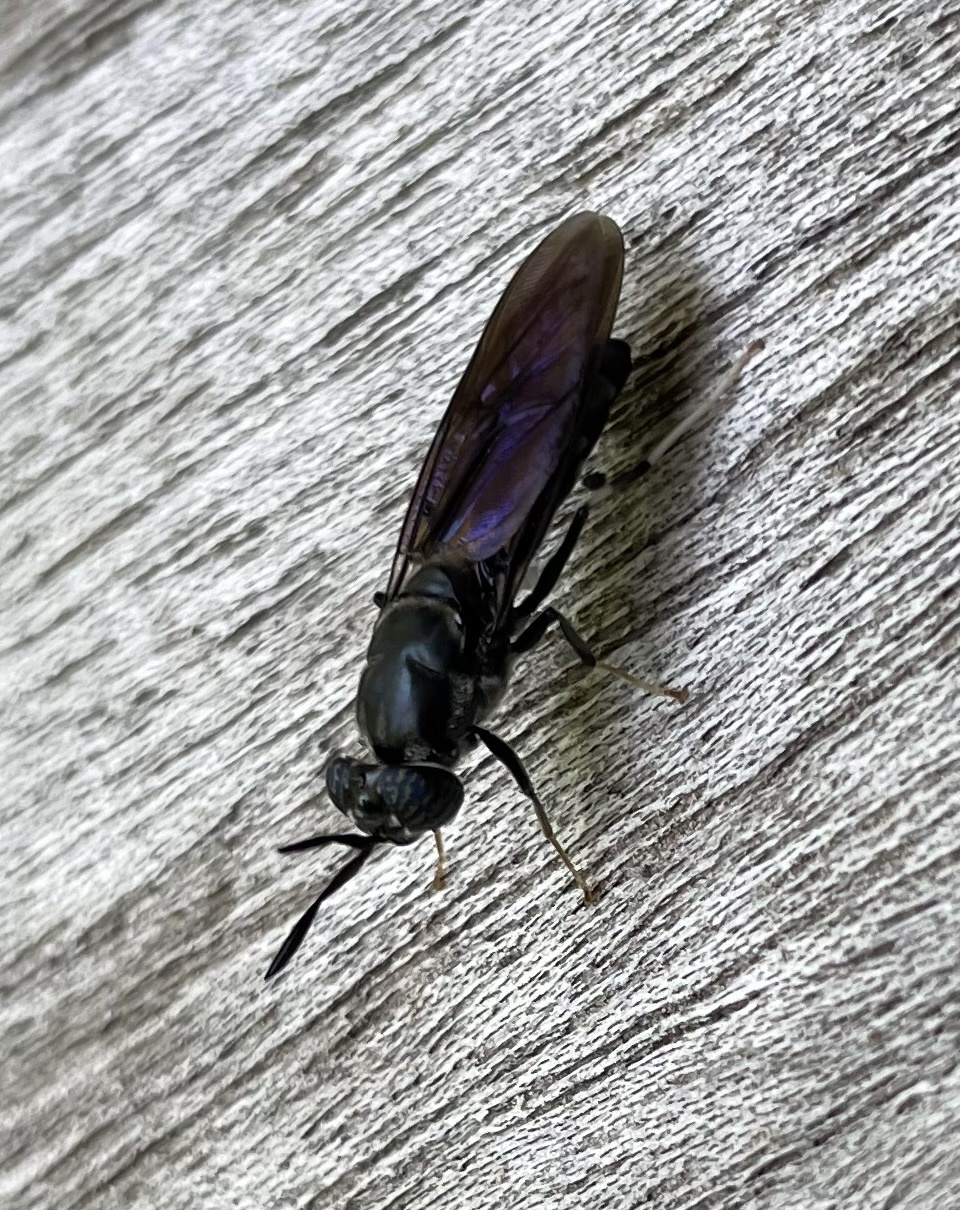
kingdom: Animalia
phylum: Arthropoda
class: Insecta
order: Diptera
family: Stratiomyidae
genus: Hermetia
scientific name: Hermetia illucens
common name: Black soldier fly
